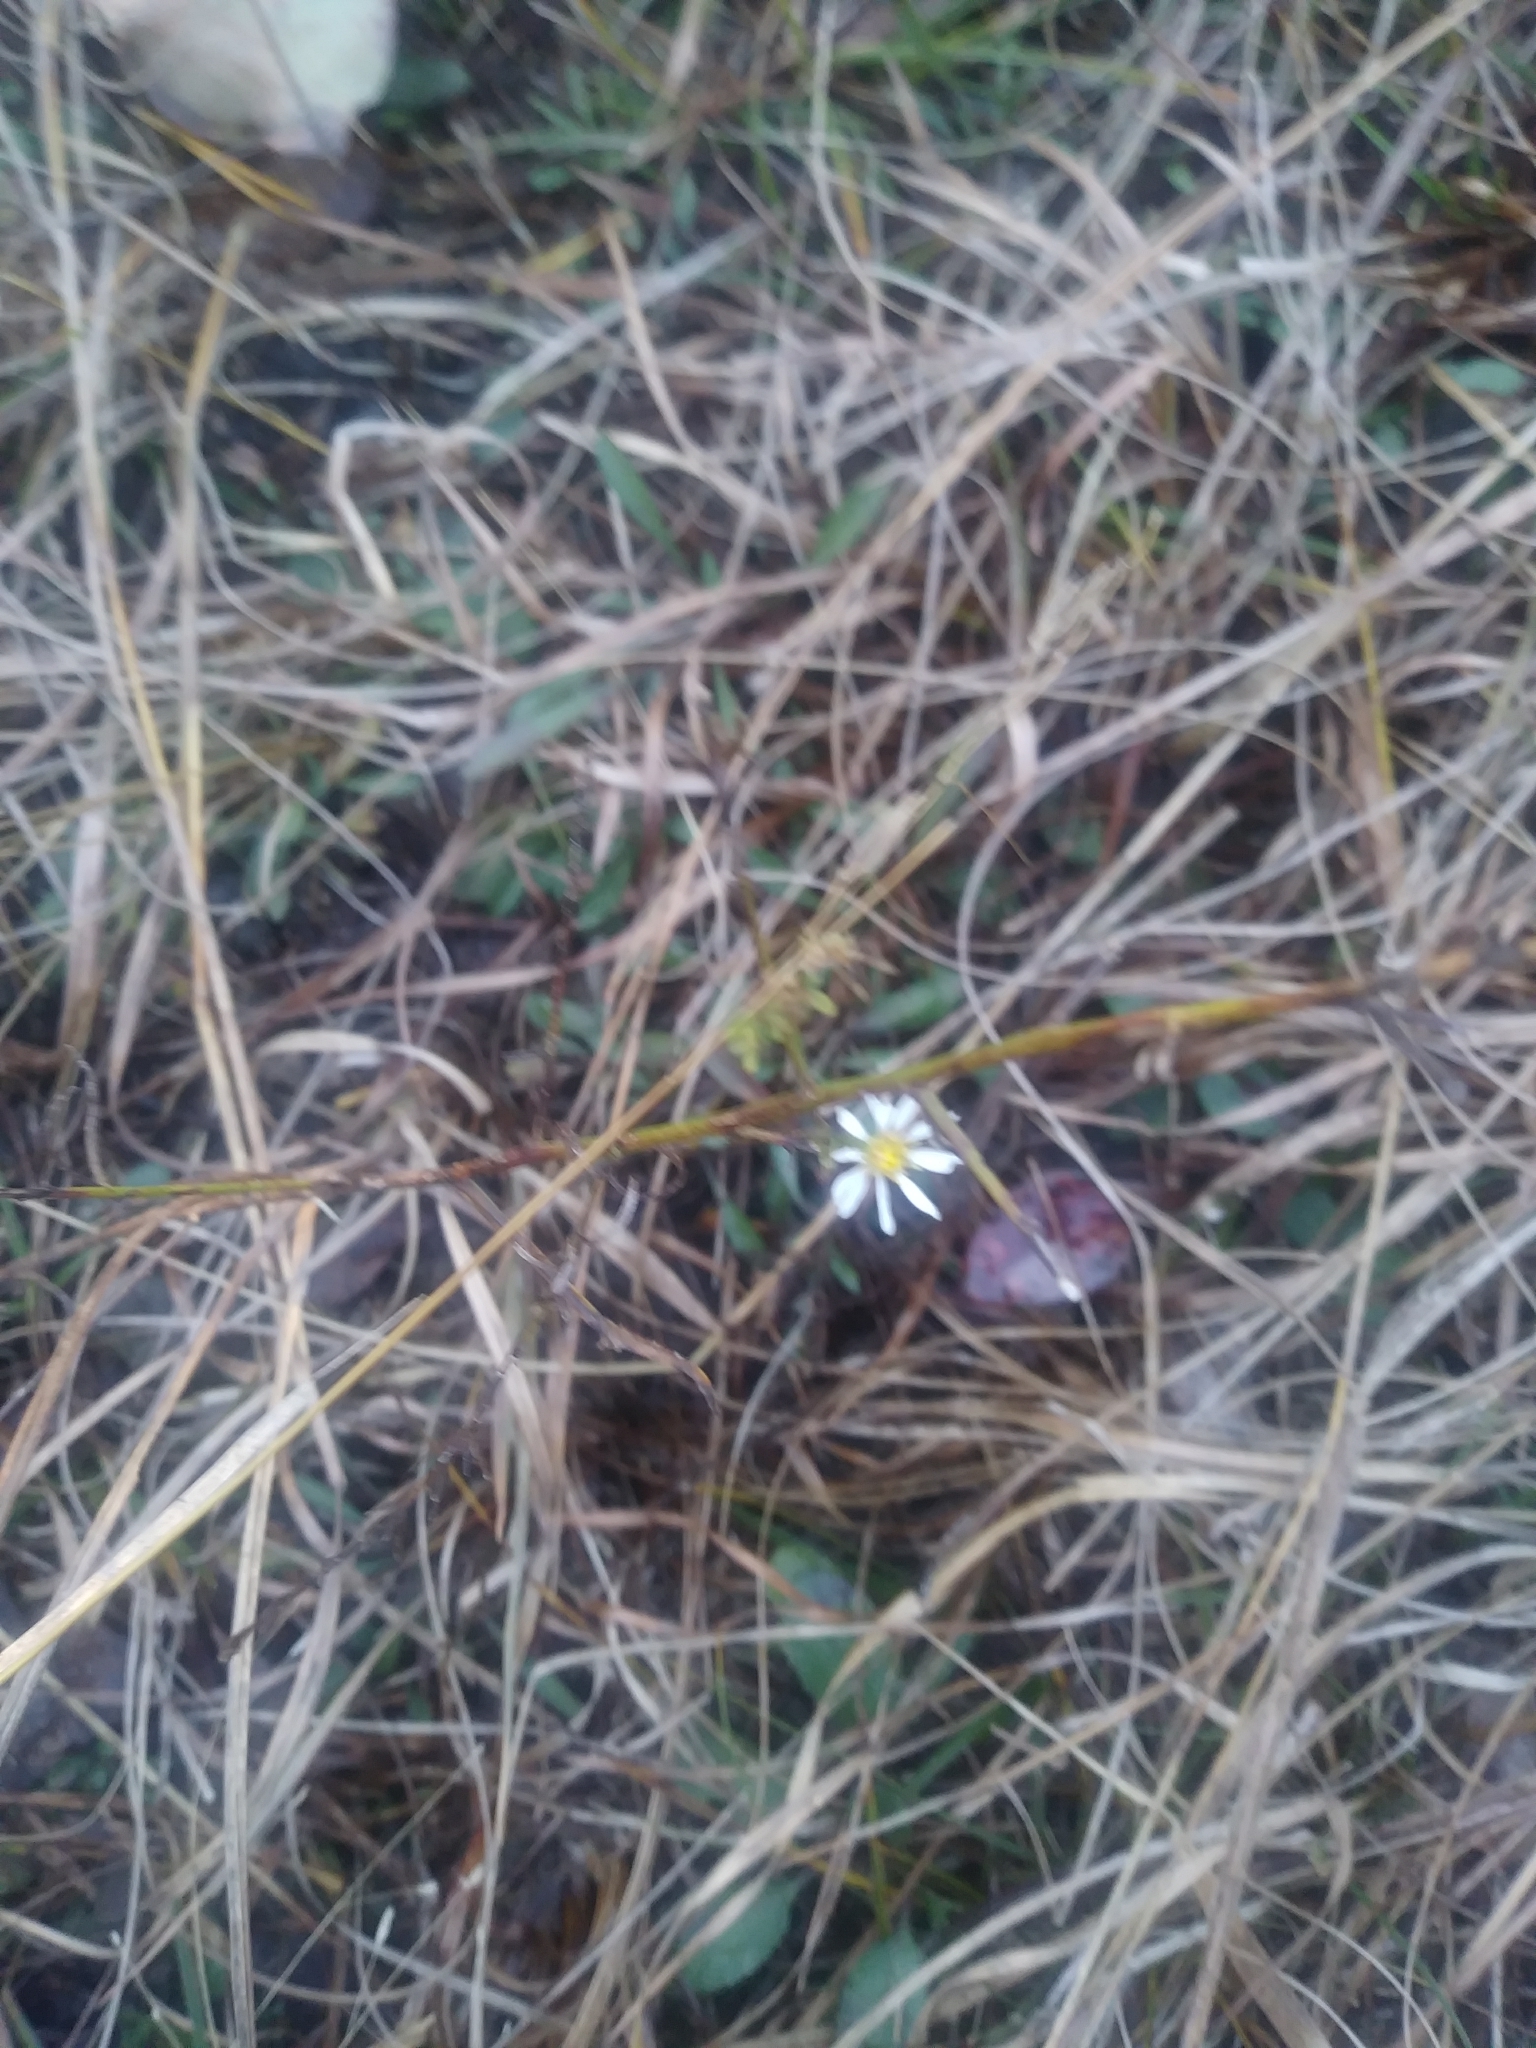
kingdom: Plantae
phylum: Tracheophyta
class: Magnoliopsida
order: Asterales
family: Asteraceae
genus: Symphyotrichum
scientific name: Symphyotrichum depauperatum
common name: Serpentine aster
